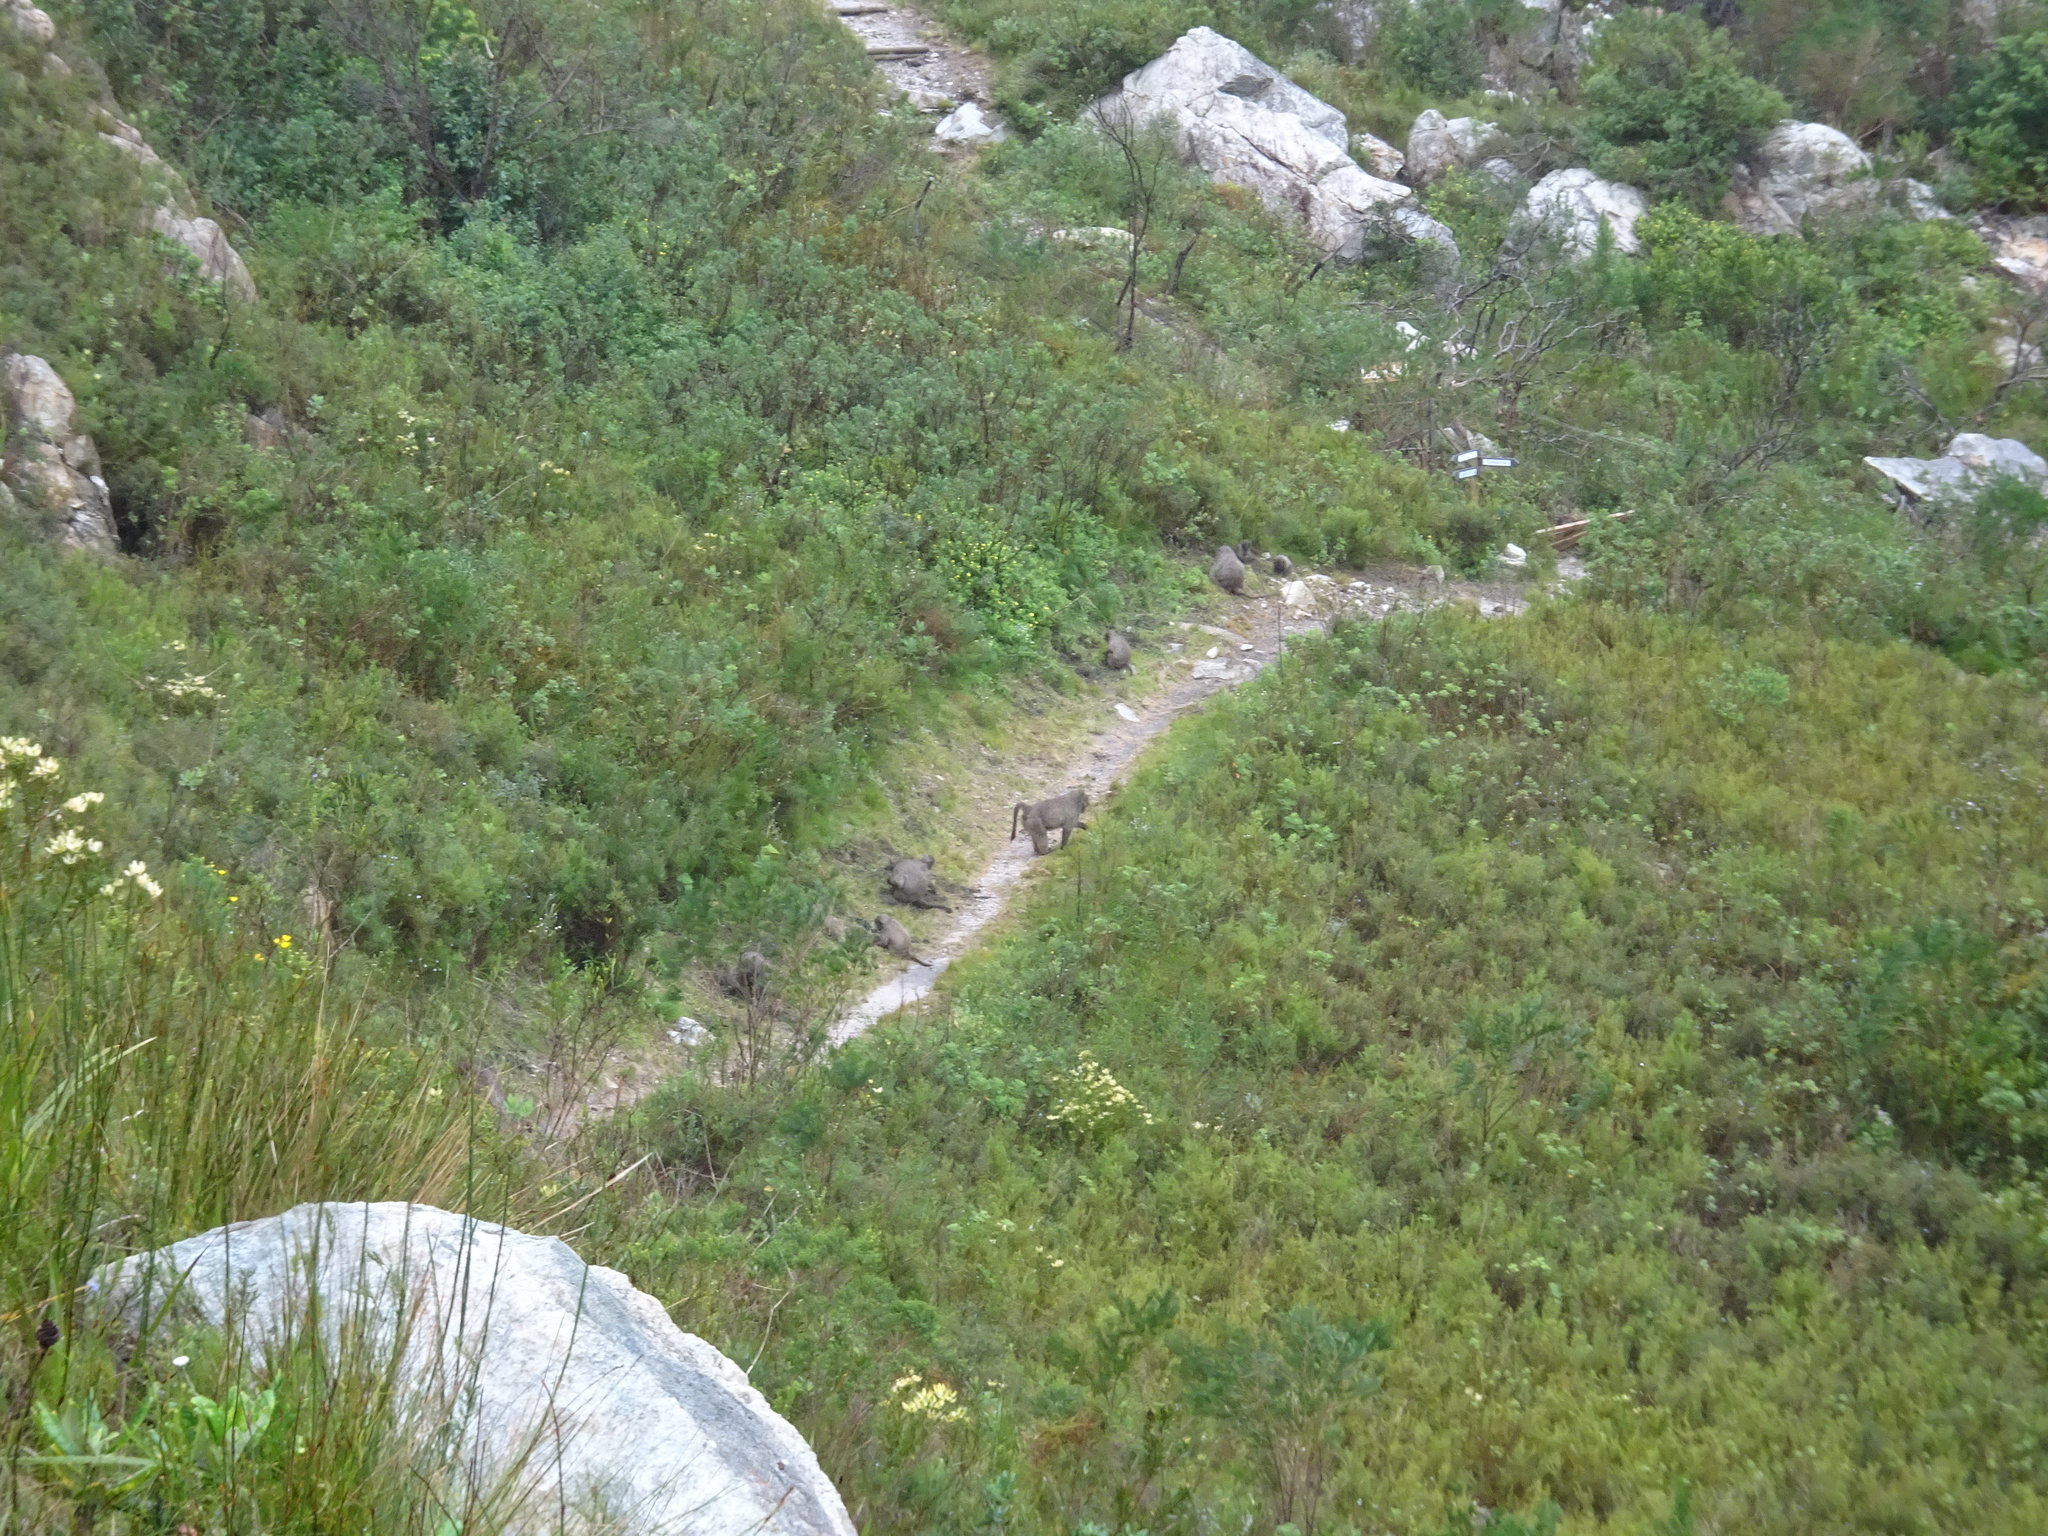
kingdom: Animalia
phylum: Chordata
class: Mammalia
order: Primates
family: Cercopithecidae
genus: Papio
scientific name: Papio ursinus
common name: Chacma baboon
